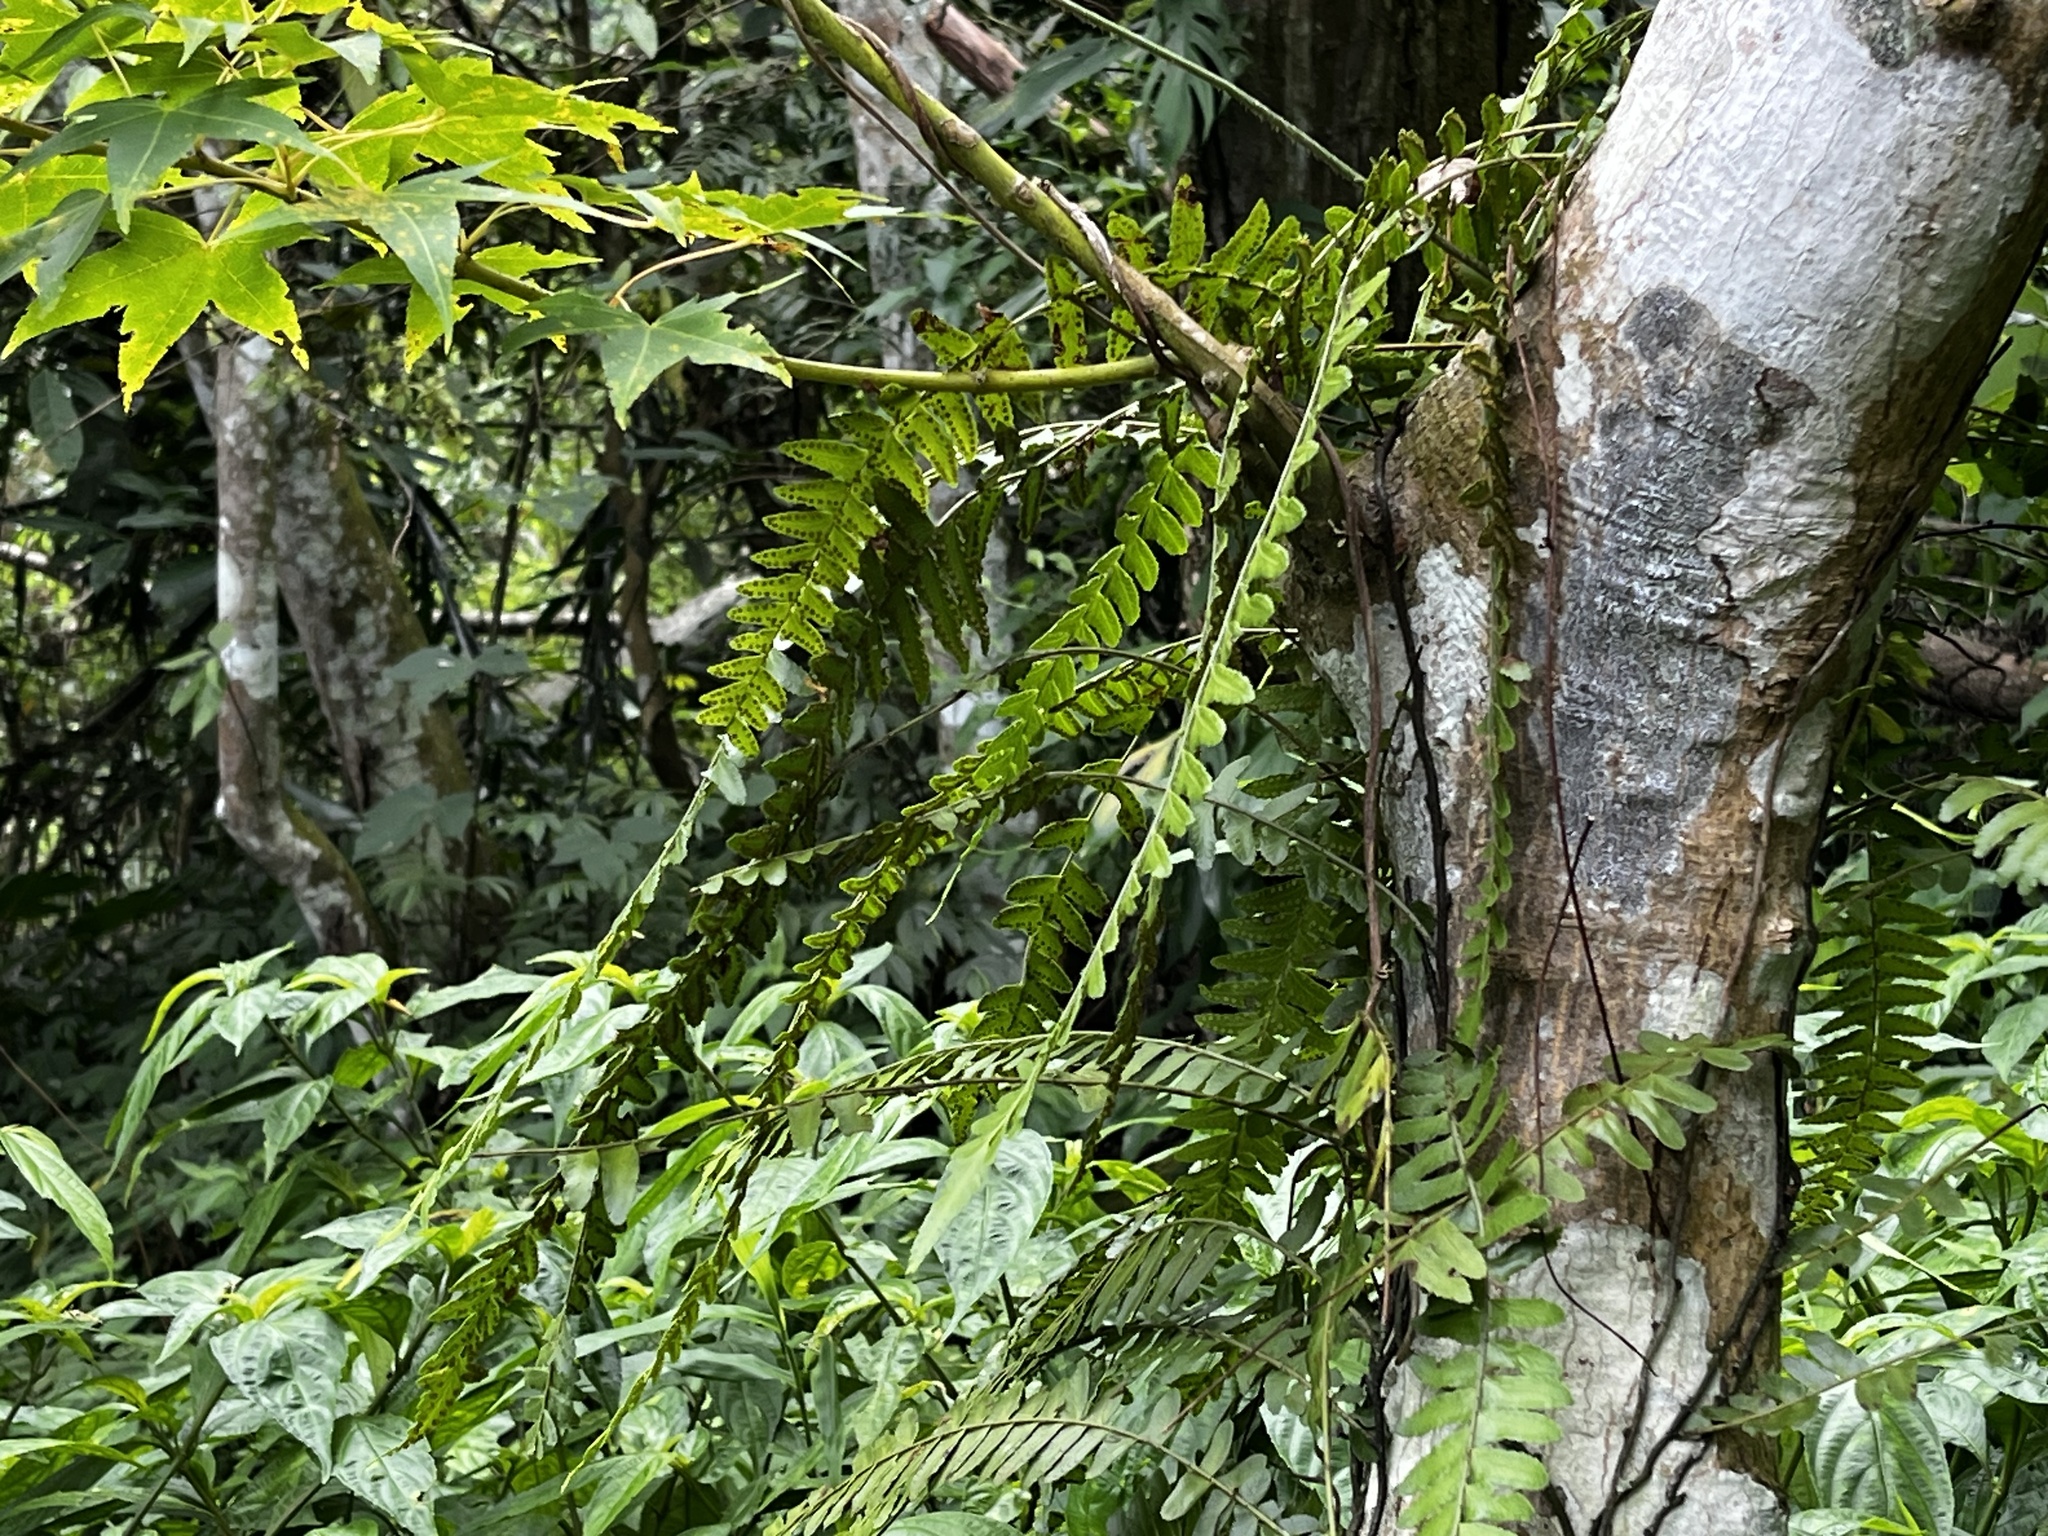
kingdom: Plantae
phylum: Tracheophyta
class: Polypodiopsida
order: Polypodiales
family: Tectariaceae
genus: Arthropteris
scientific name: Arthropteris palisotii
